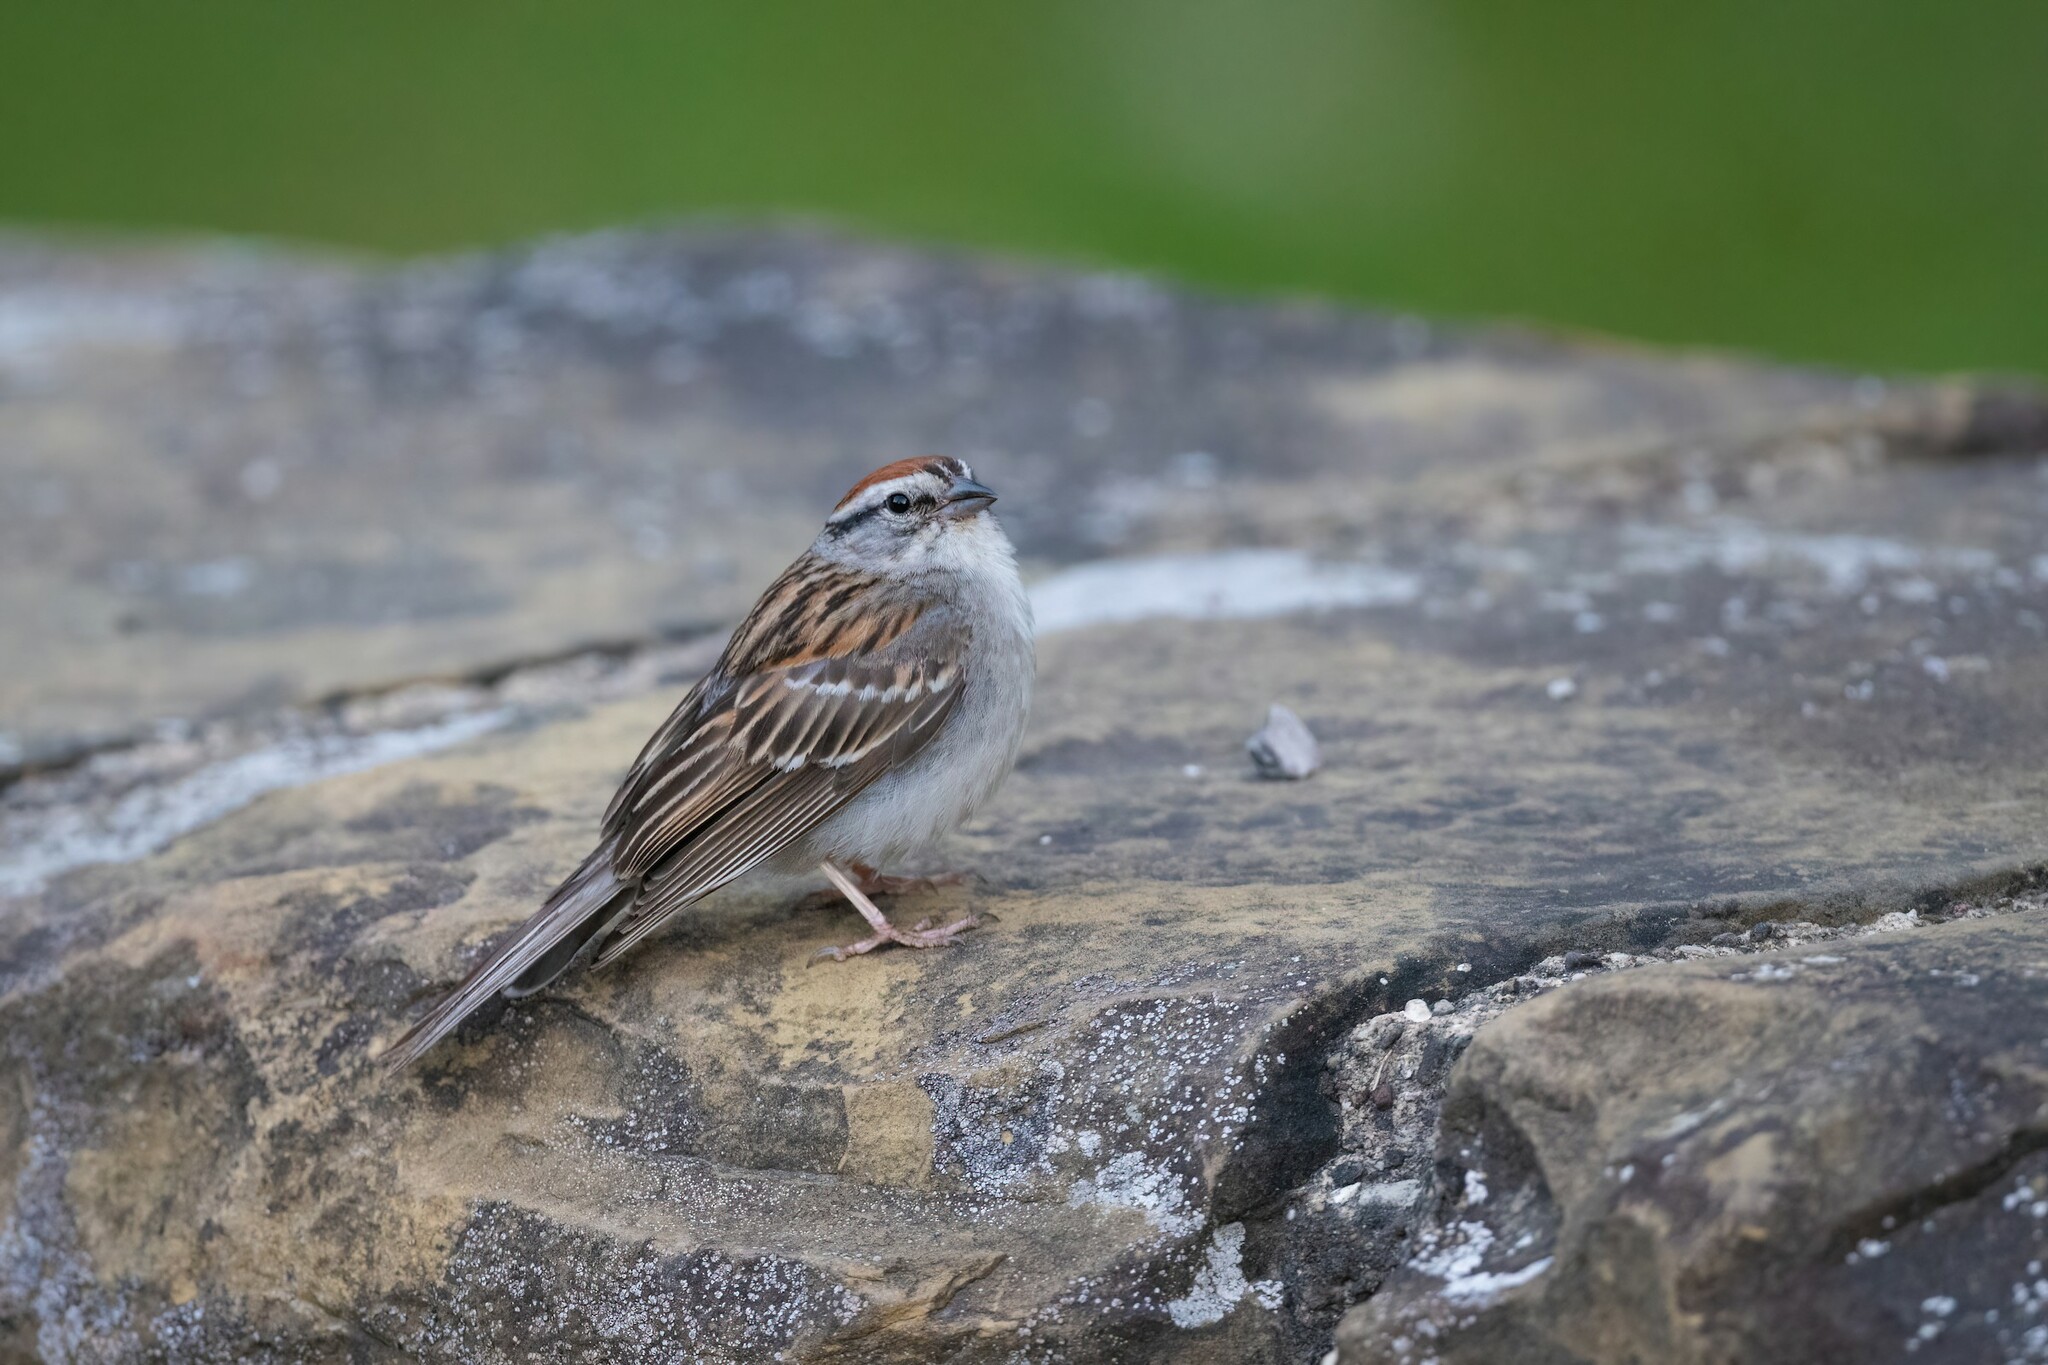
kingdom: Animalia
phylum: Chordata
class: Aves
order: Passeriformes
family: Passerellidae
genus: Spizella
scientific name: Spizella passerina
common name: Chipping sparrow
